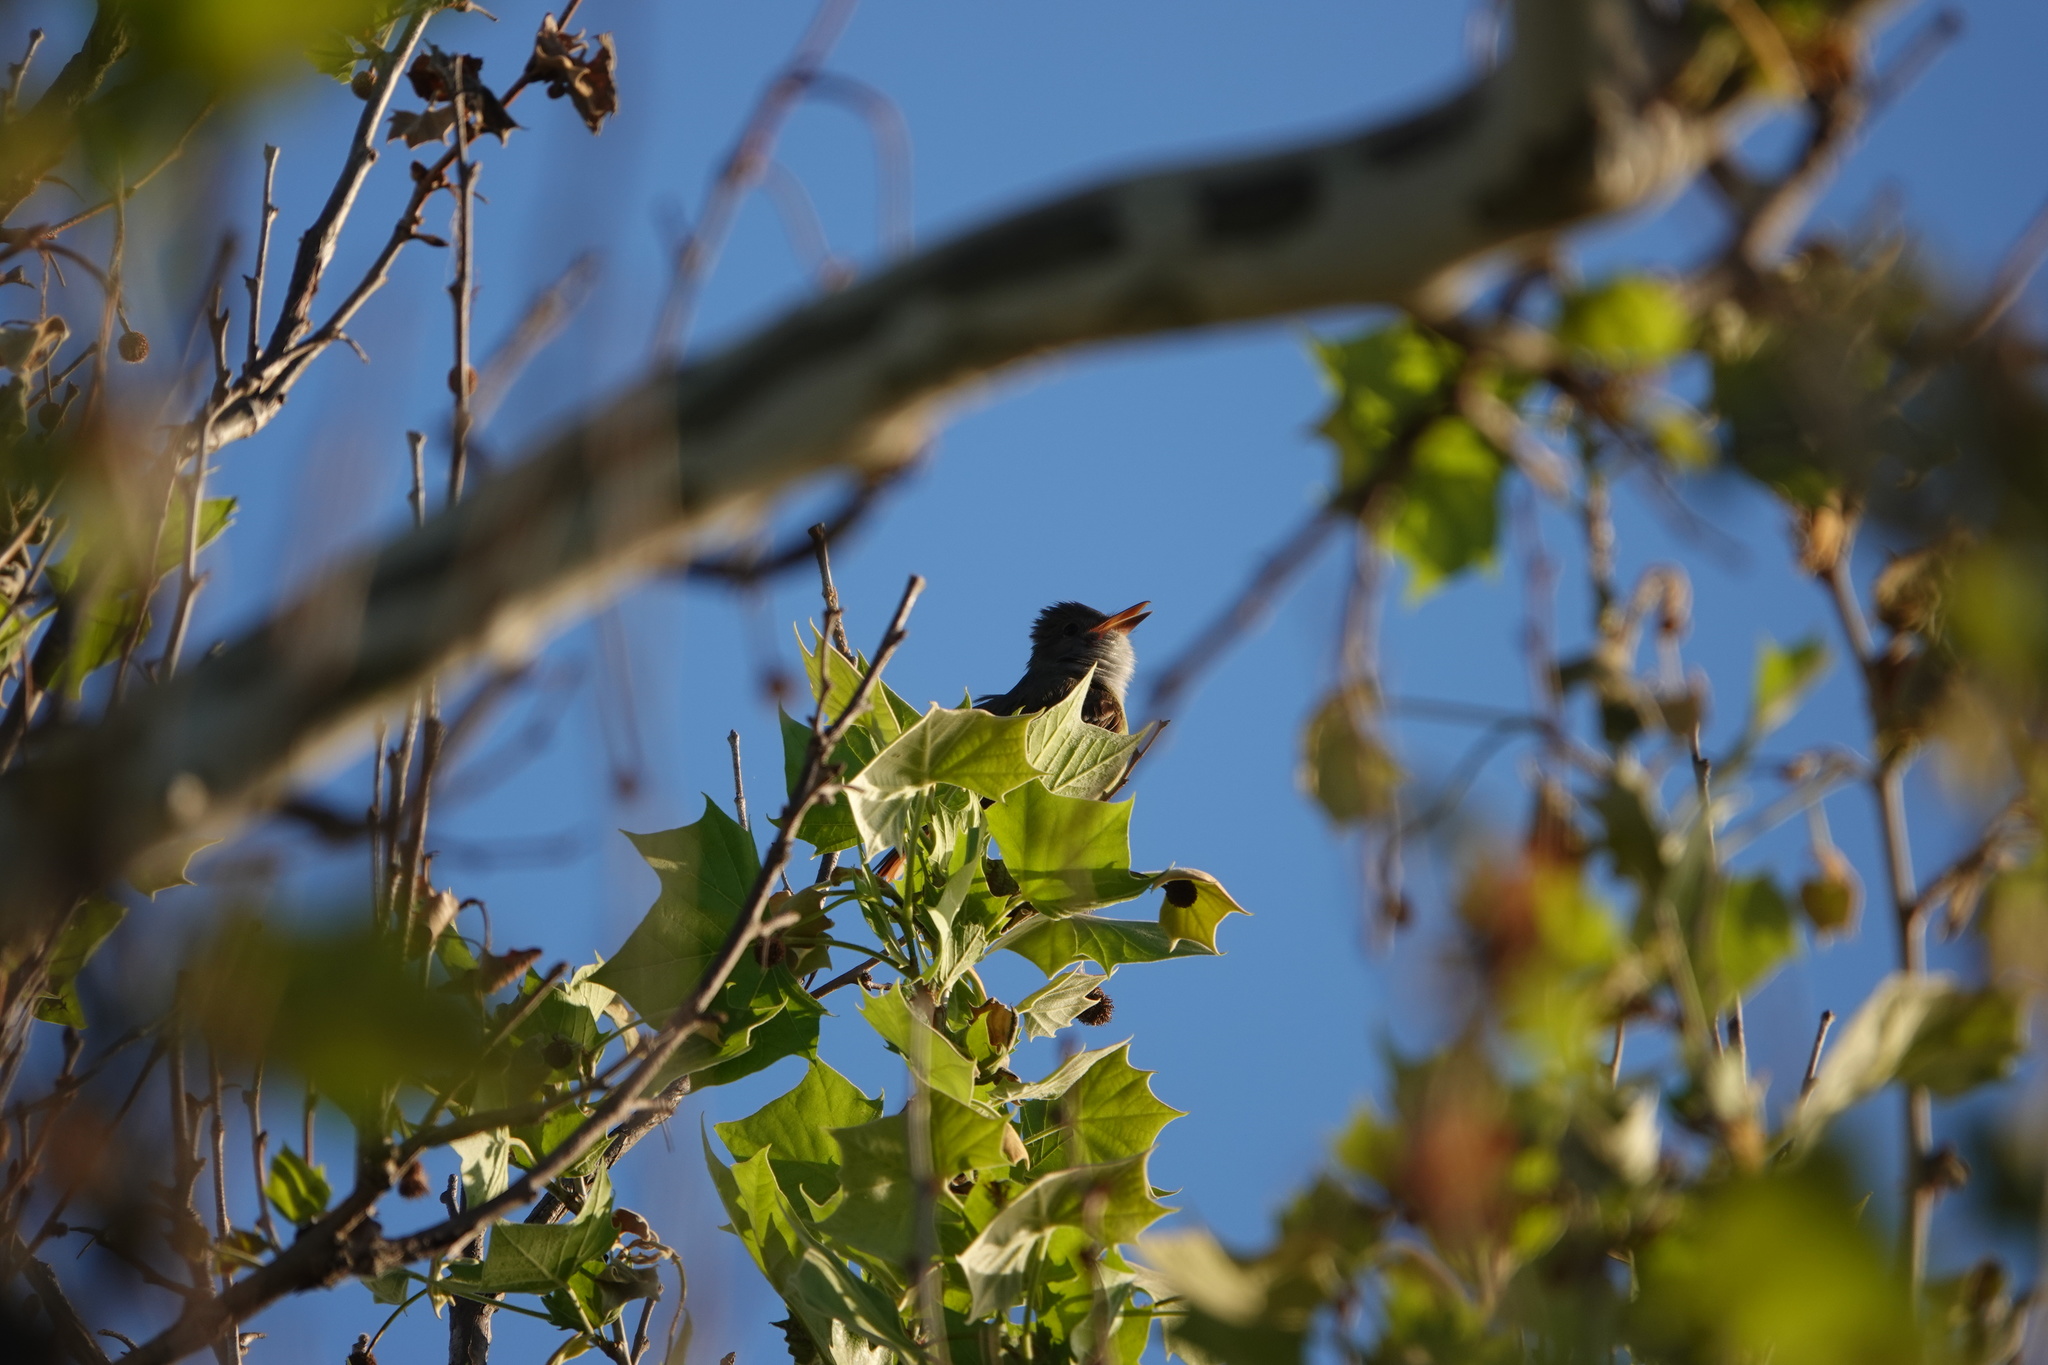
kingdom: Animalia
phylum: Chordata
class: Aves
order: Passeriformes
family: Tyrannidae
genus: Myiarchus
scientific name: Myiarchus crinitus
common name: Great crested flycatcher
